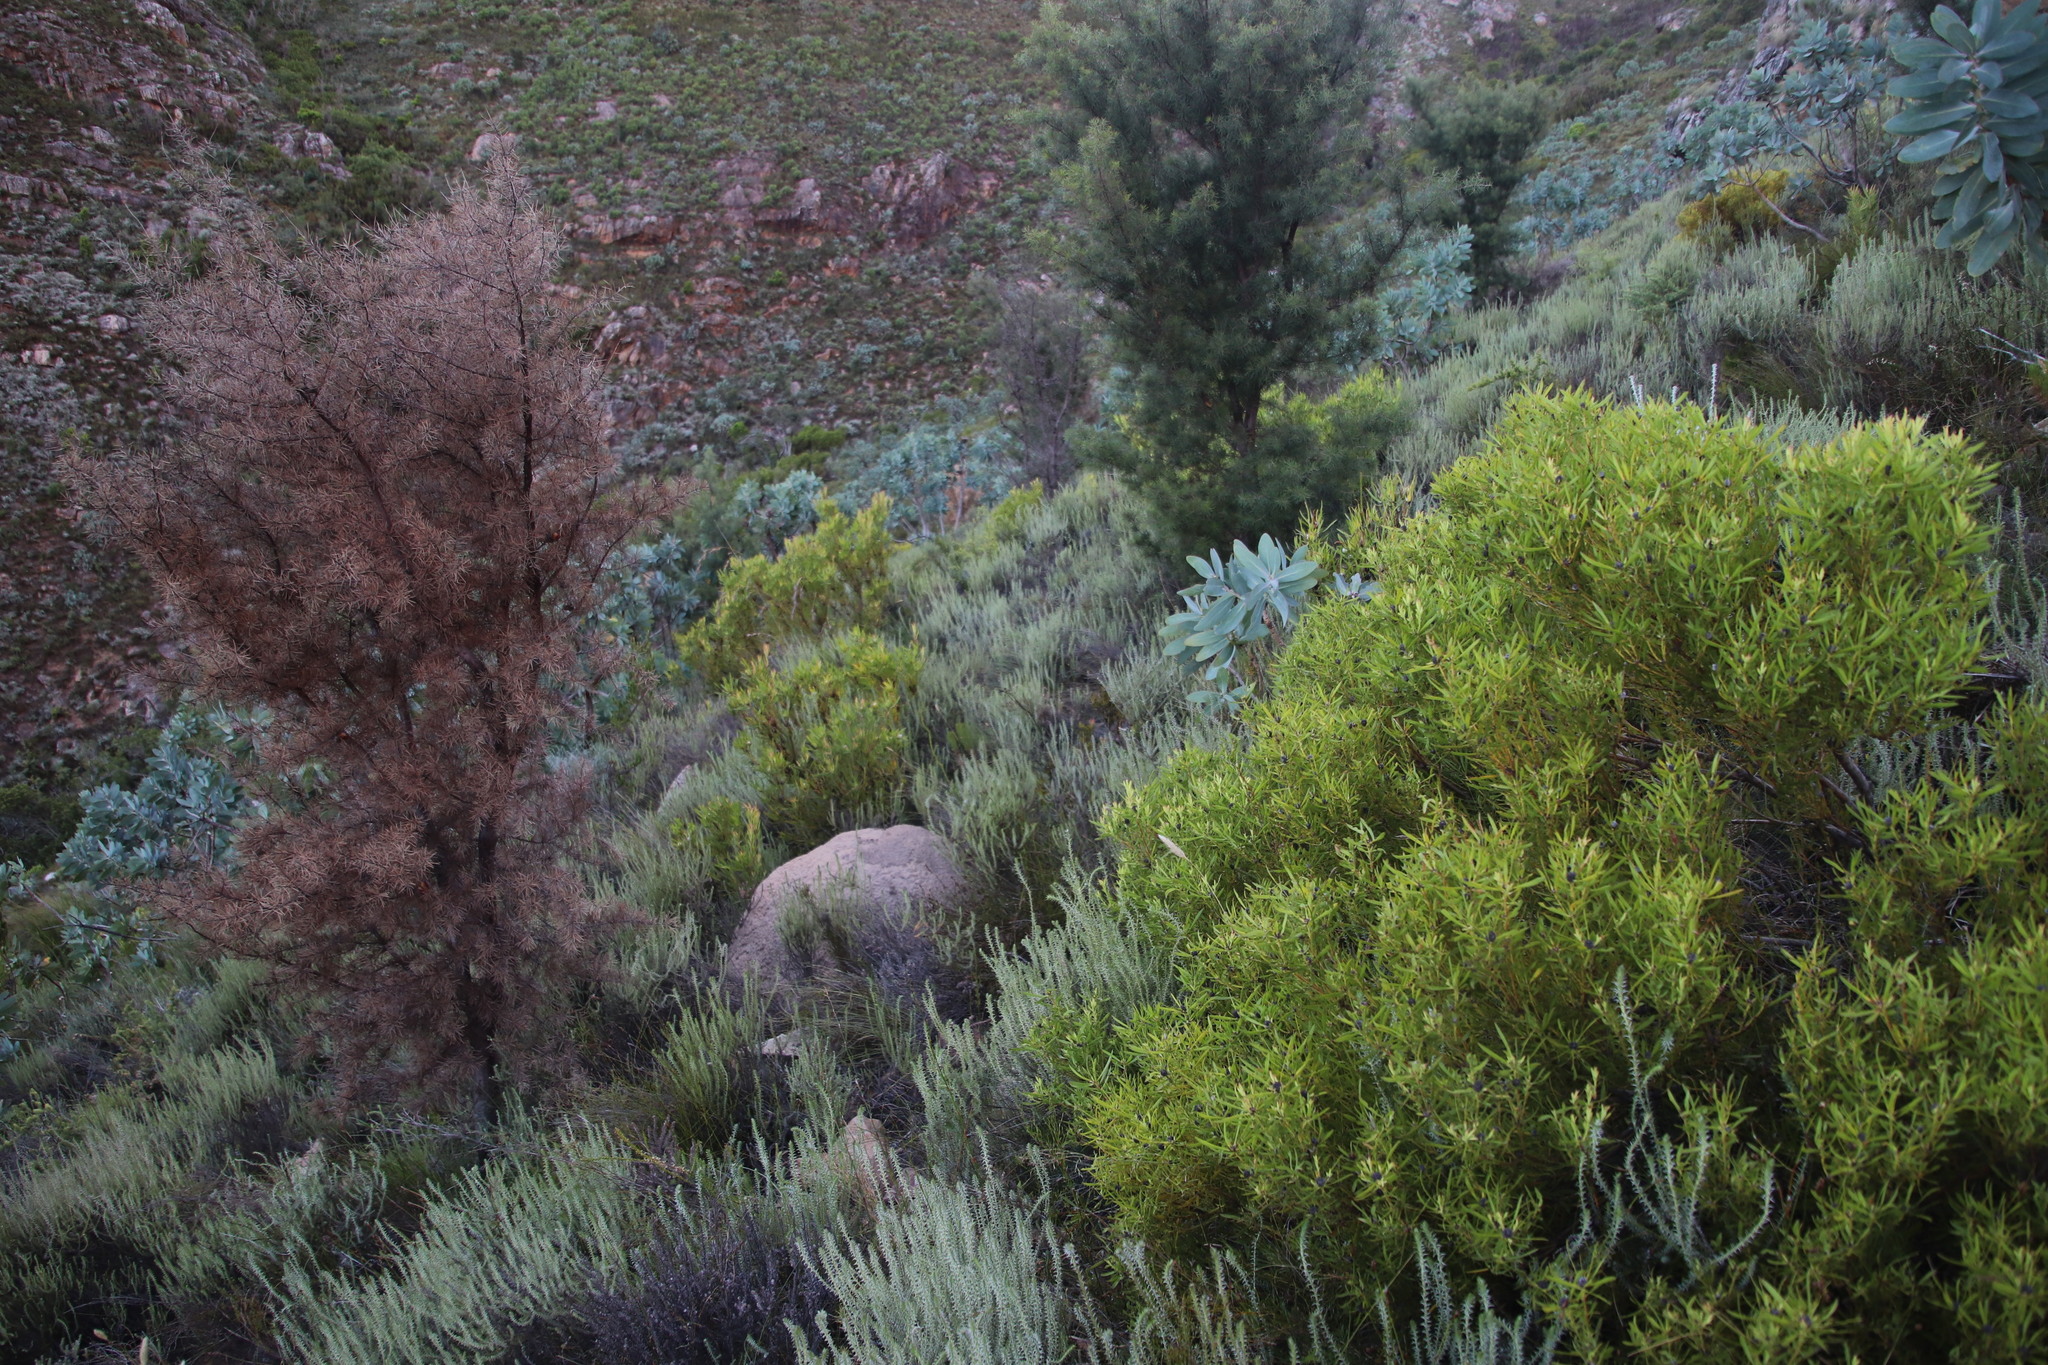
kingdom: Plantae
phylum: Tracheophyta
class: Magnoliopsida
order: Proteales
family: Proteaceae
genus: Leucadendron
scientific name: Leucadendron salignum
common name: Common sunshine conebush
